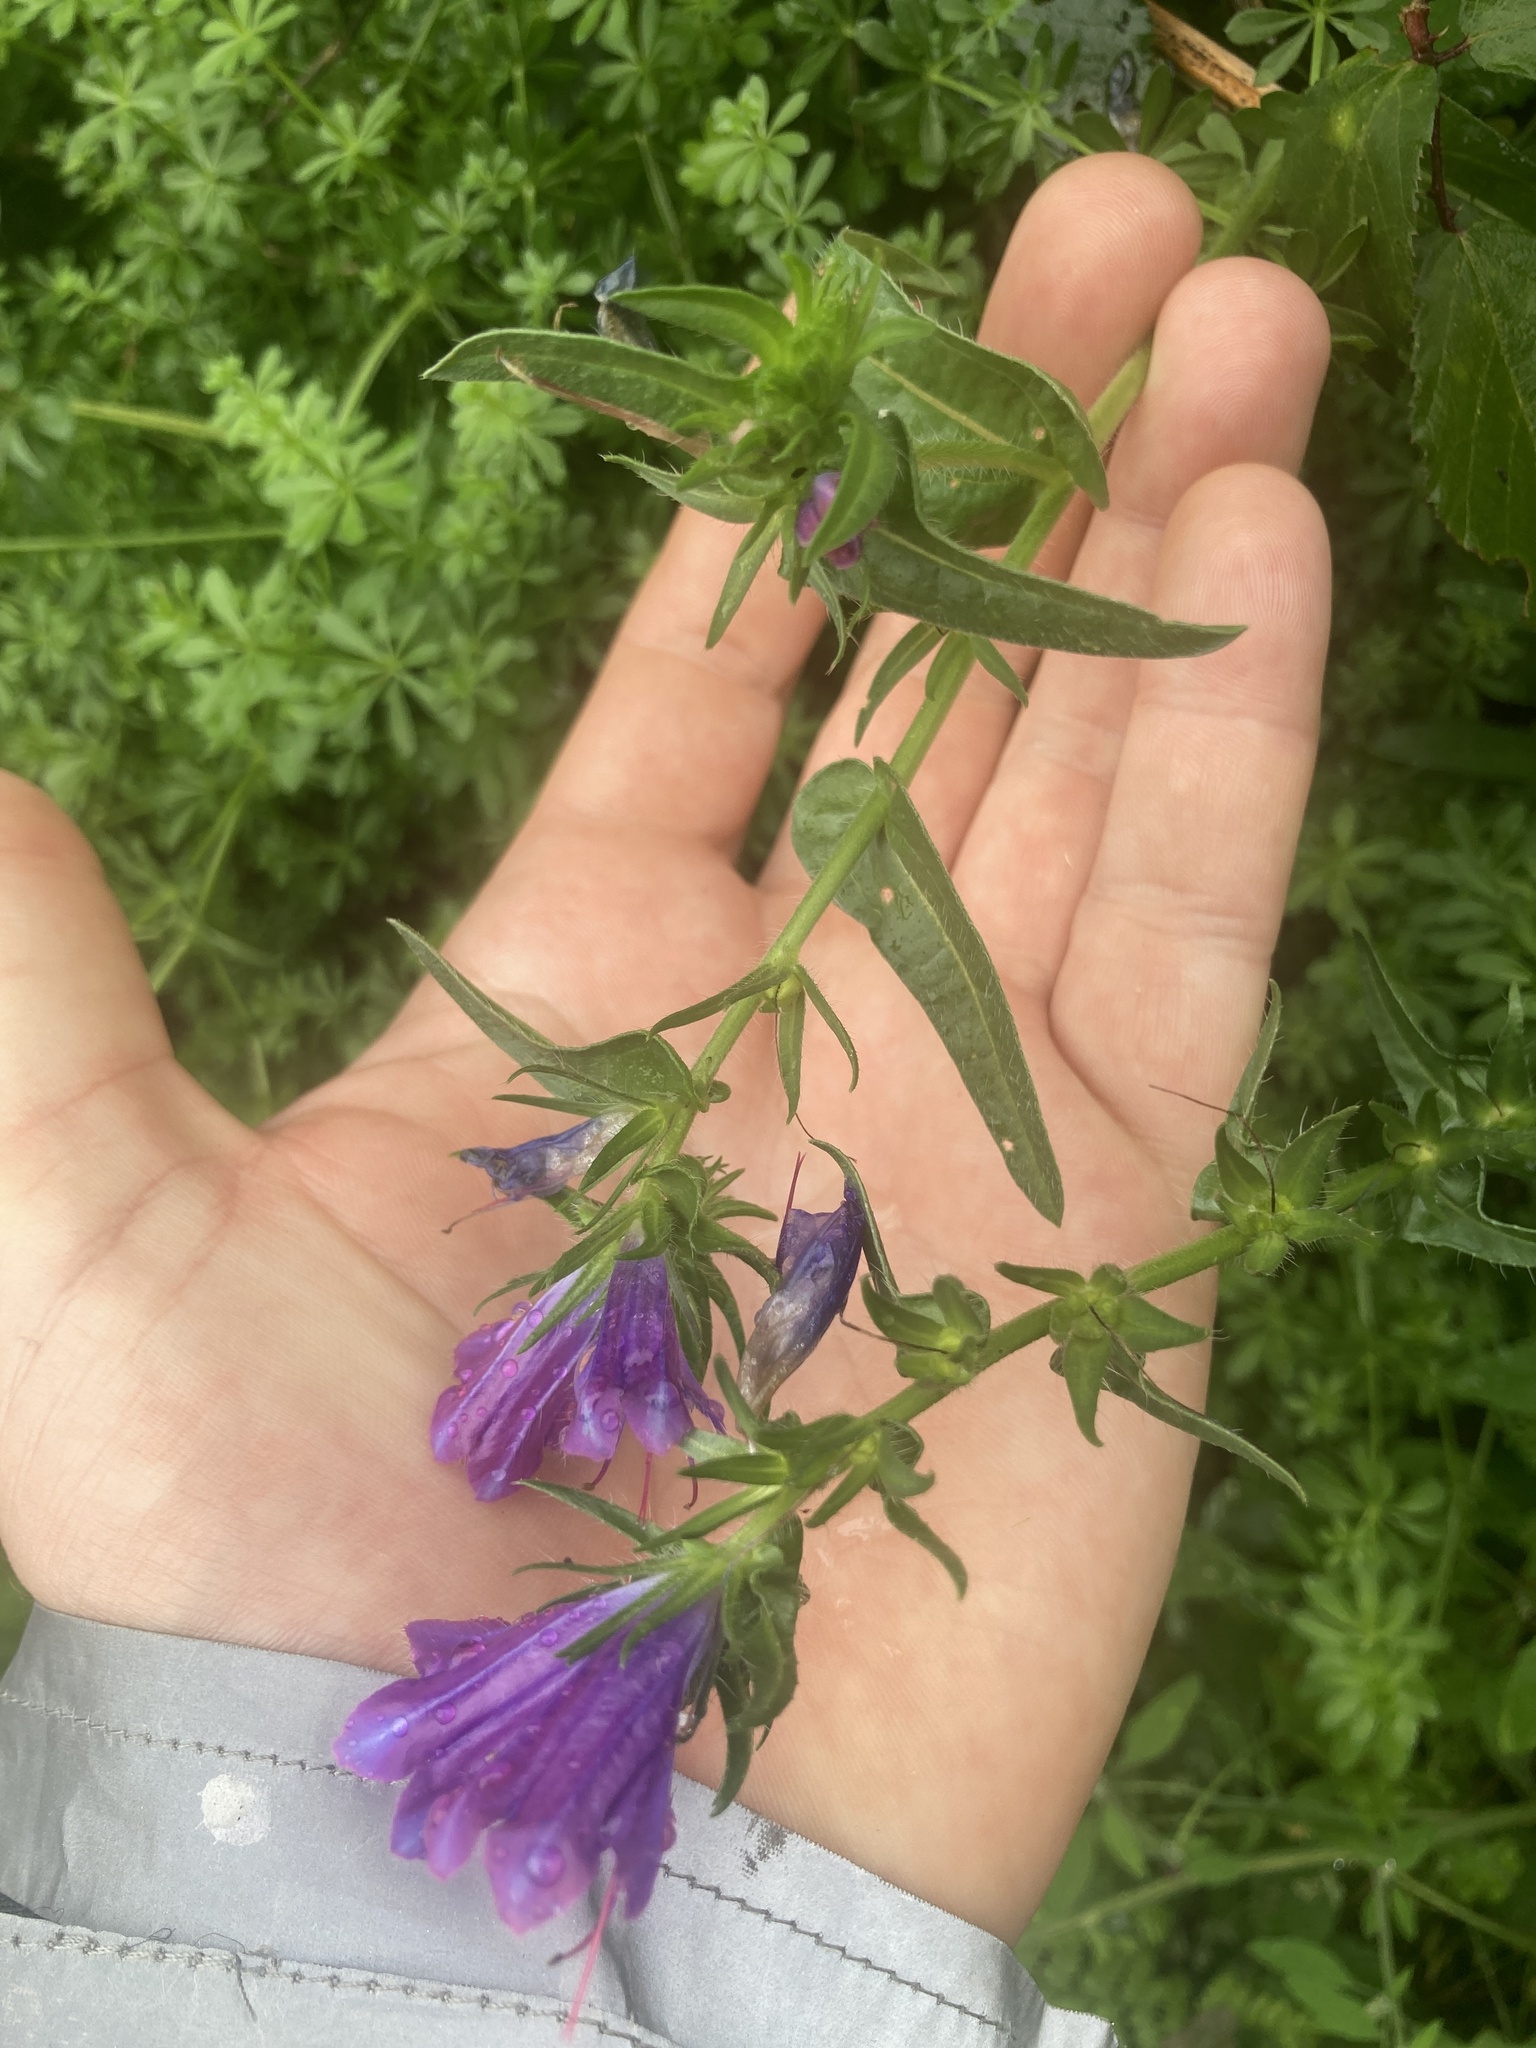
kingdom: Plantae
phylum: Tracheophyta
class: Magnoliopsida
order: Boraginales
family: Boraginaceae
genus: Echium
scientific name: Echium plantagineum
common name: Purple viper's-bugloss
